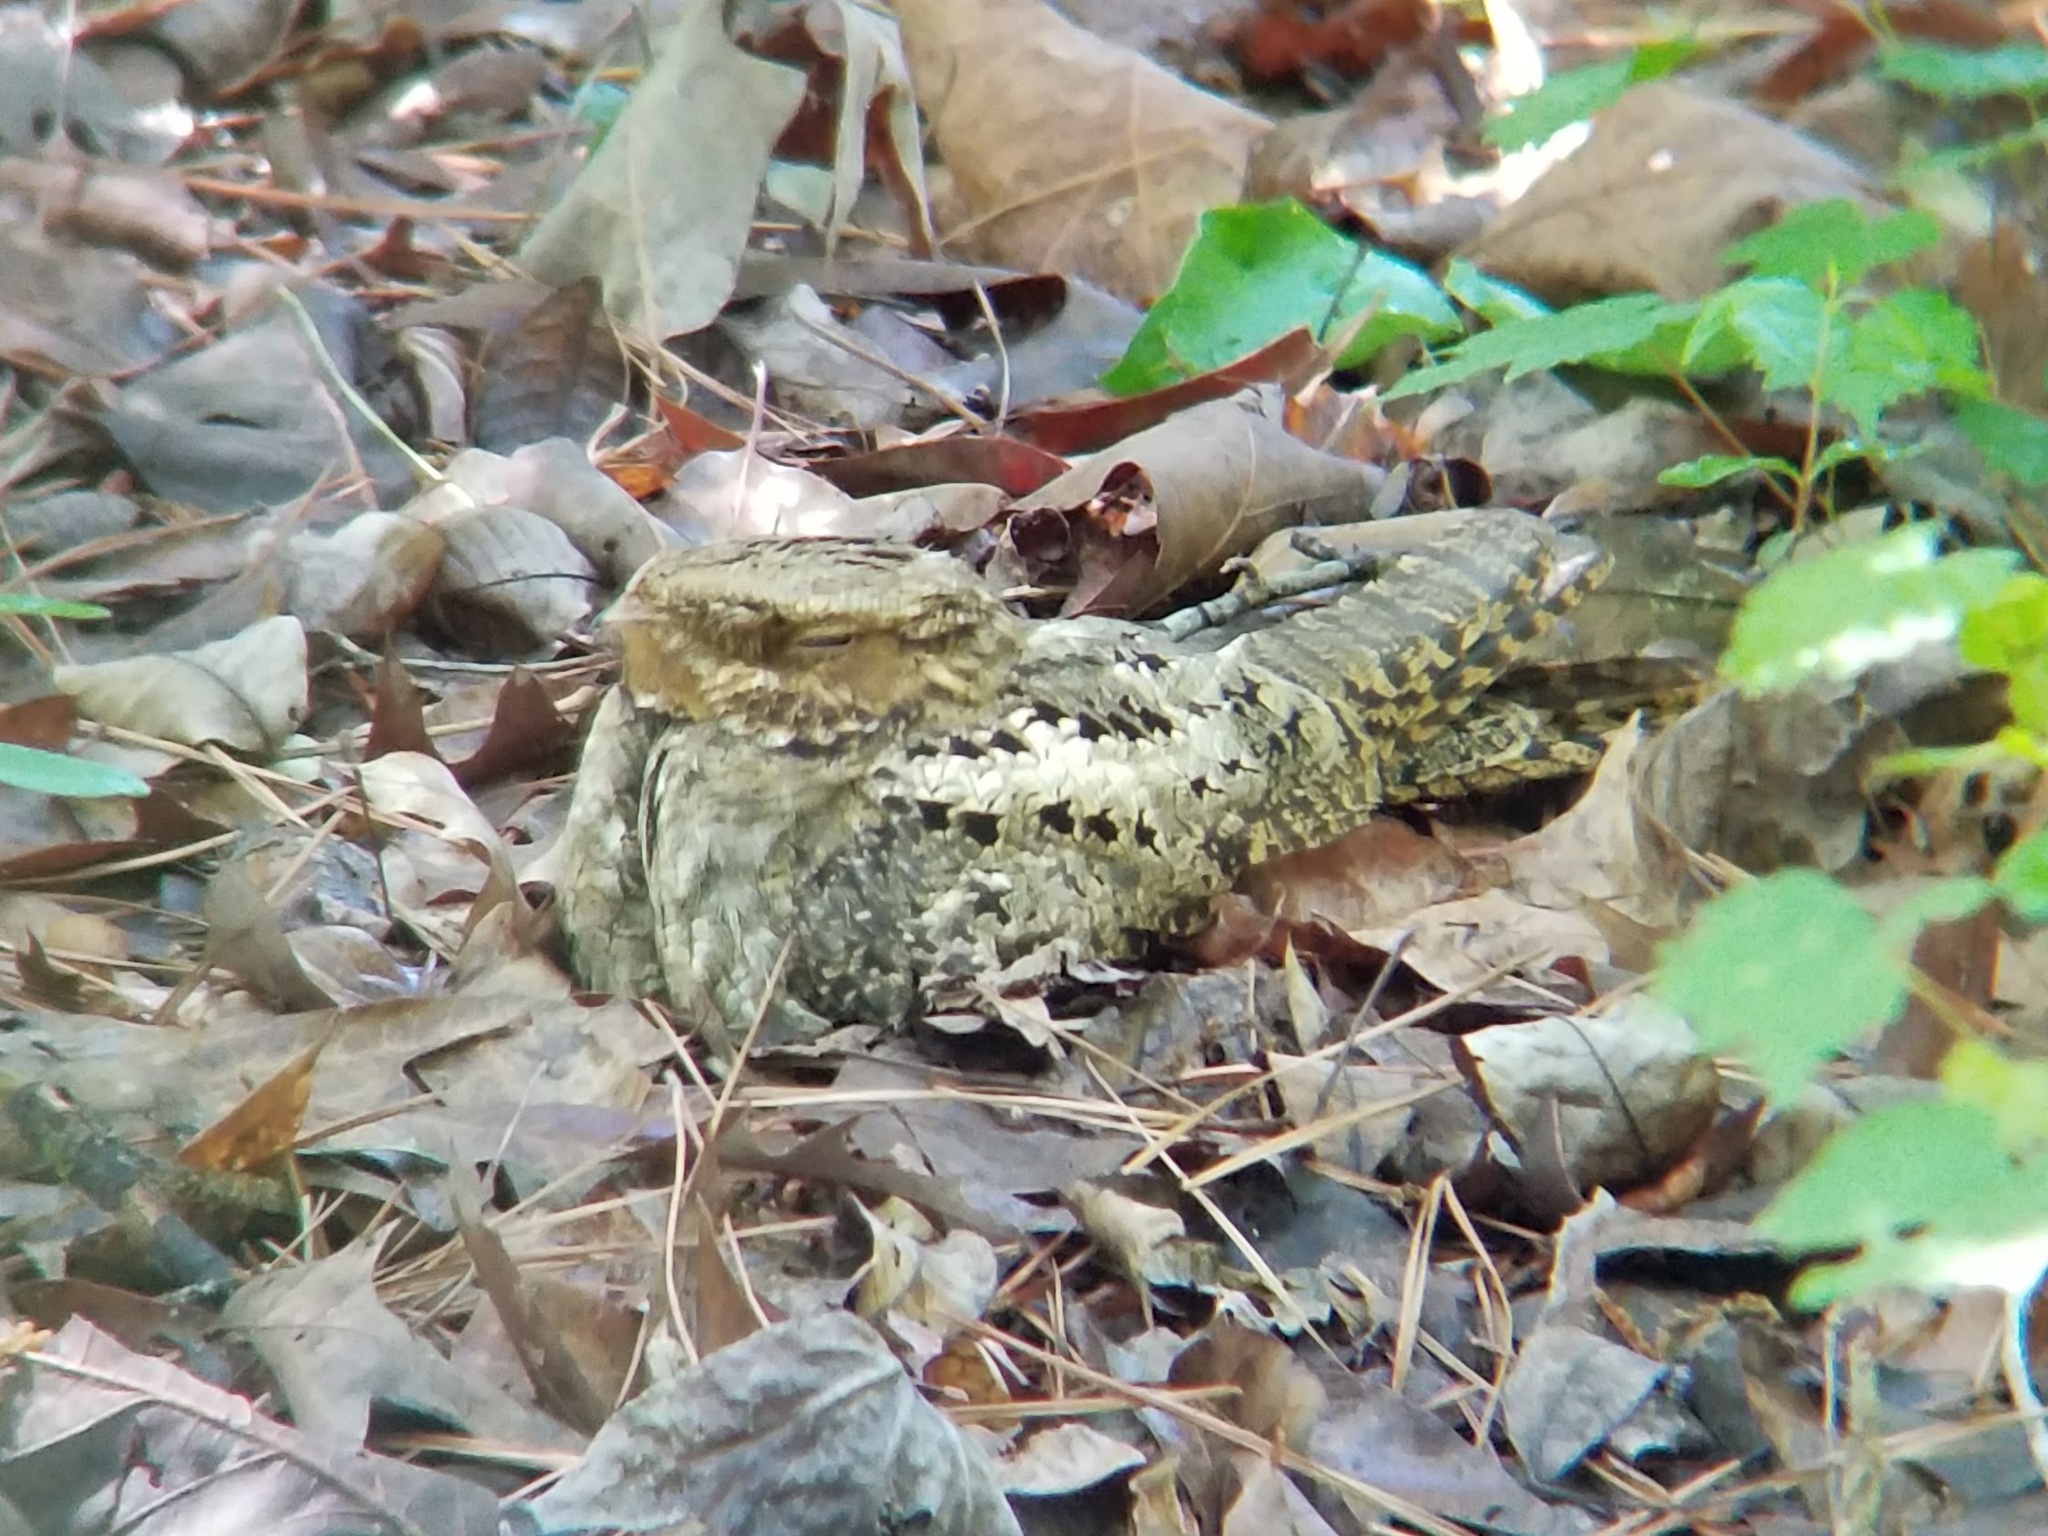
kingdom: Animalia
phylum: Chordata
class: Aves
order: Caprimulgiformes
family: Caprimulgidae
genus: Antrostomus
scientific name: Antrostomus carolinensis
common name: Chuck-will's-widow
